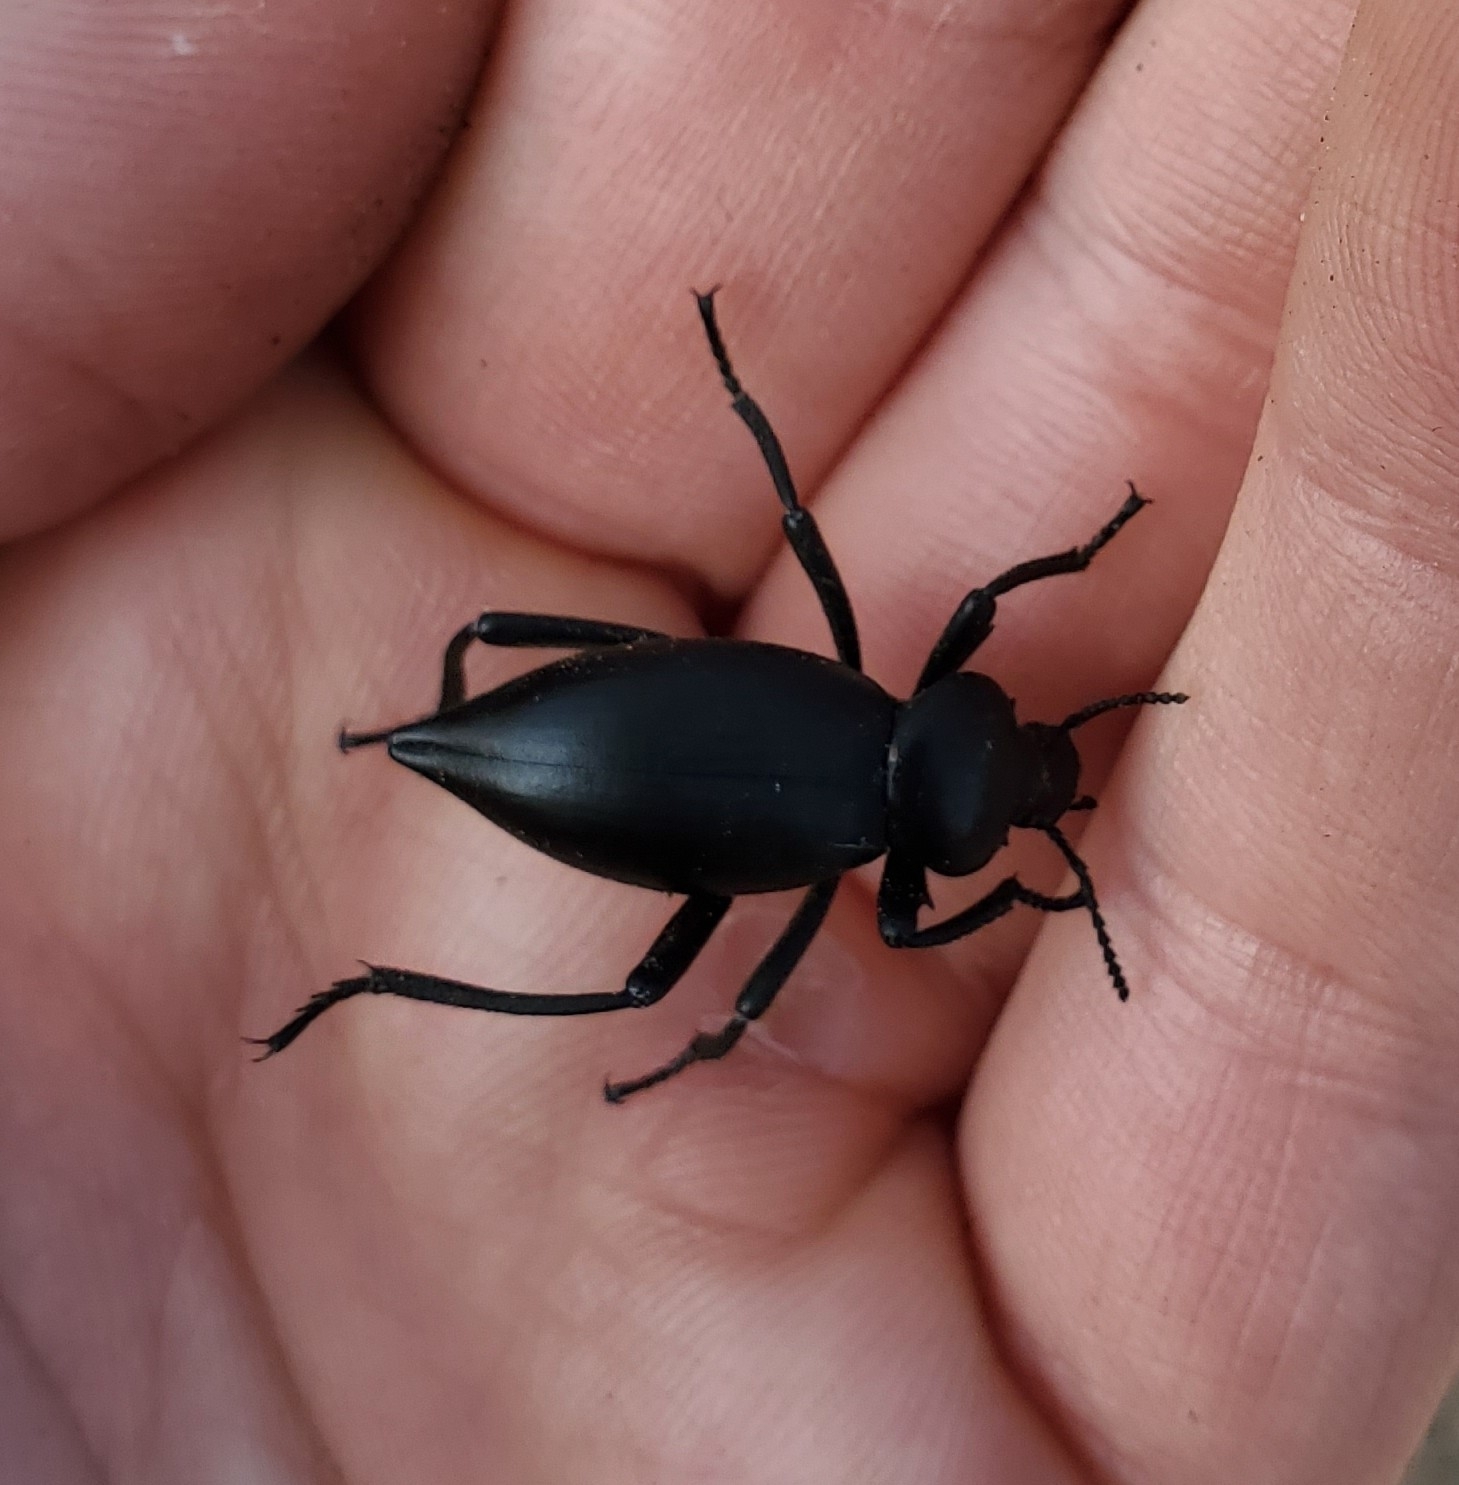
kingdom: Animalia
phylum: Arthropoda
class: Insecta
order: Coleoptera
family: Tenebrionidae
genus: Eleodes
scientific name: Eleodes acuticauda
